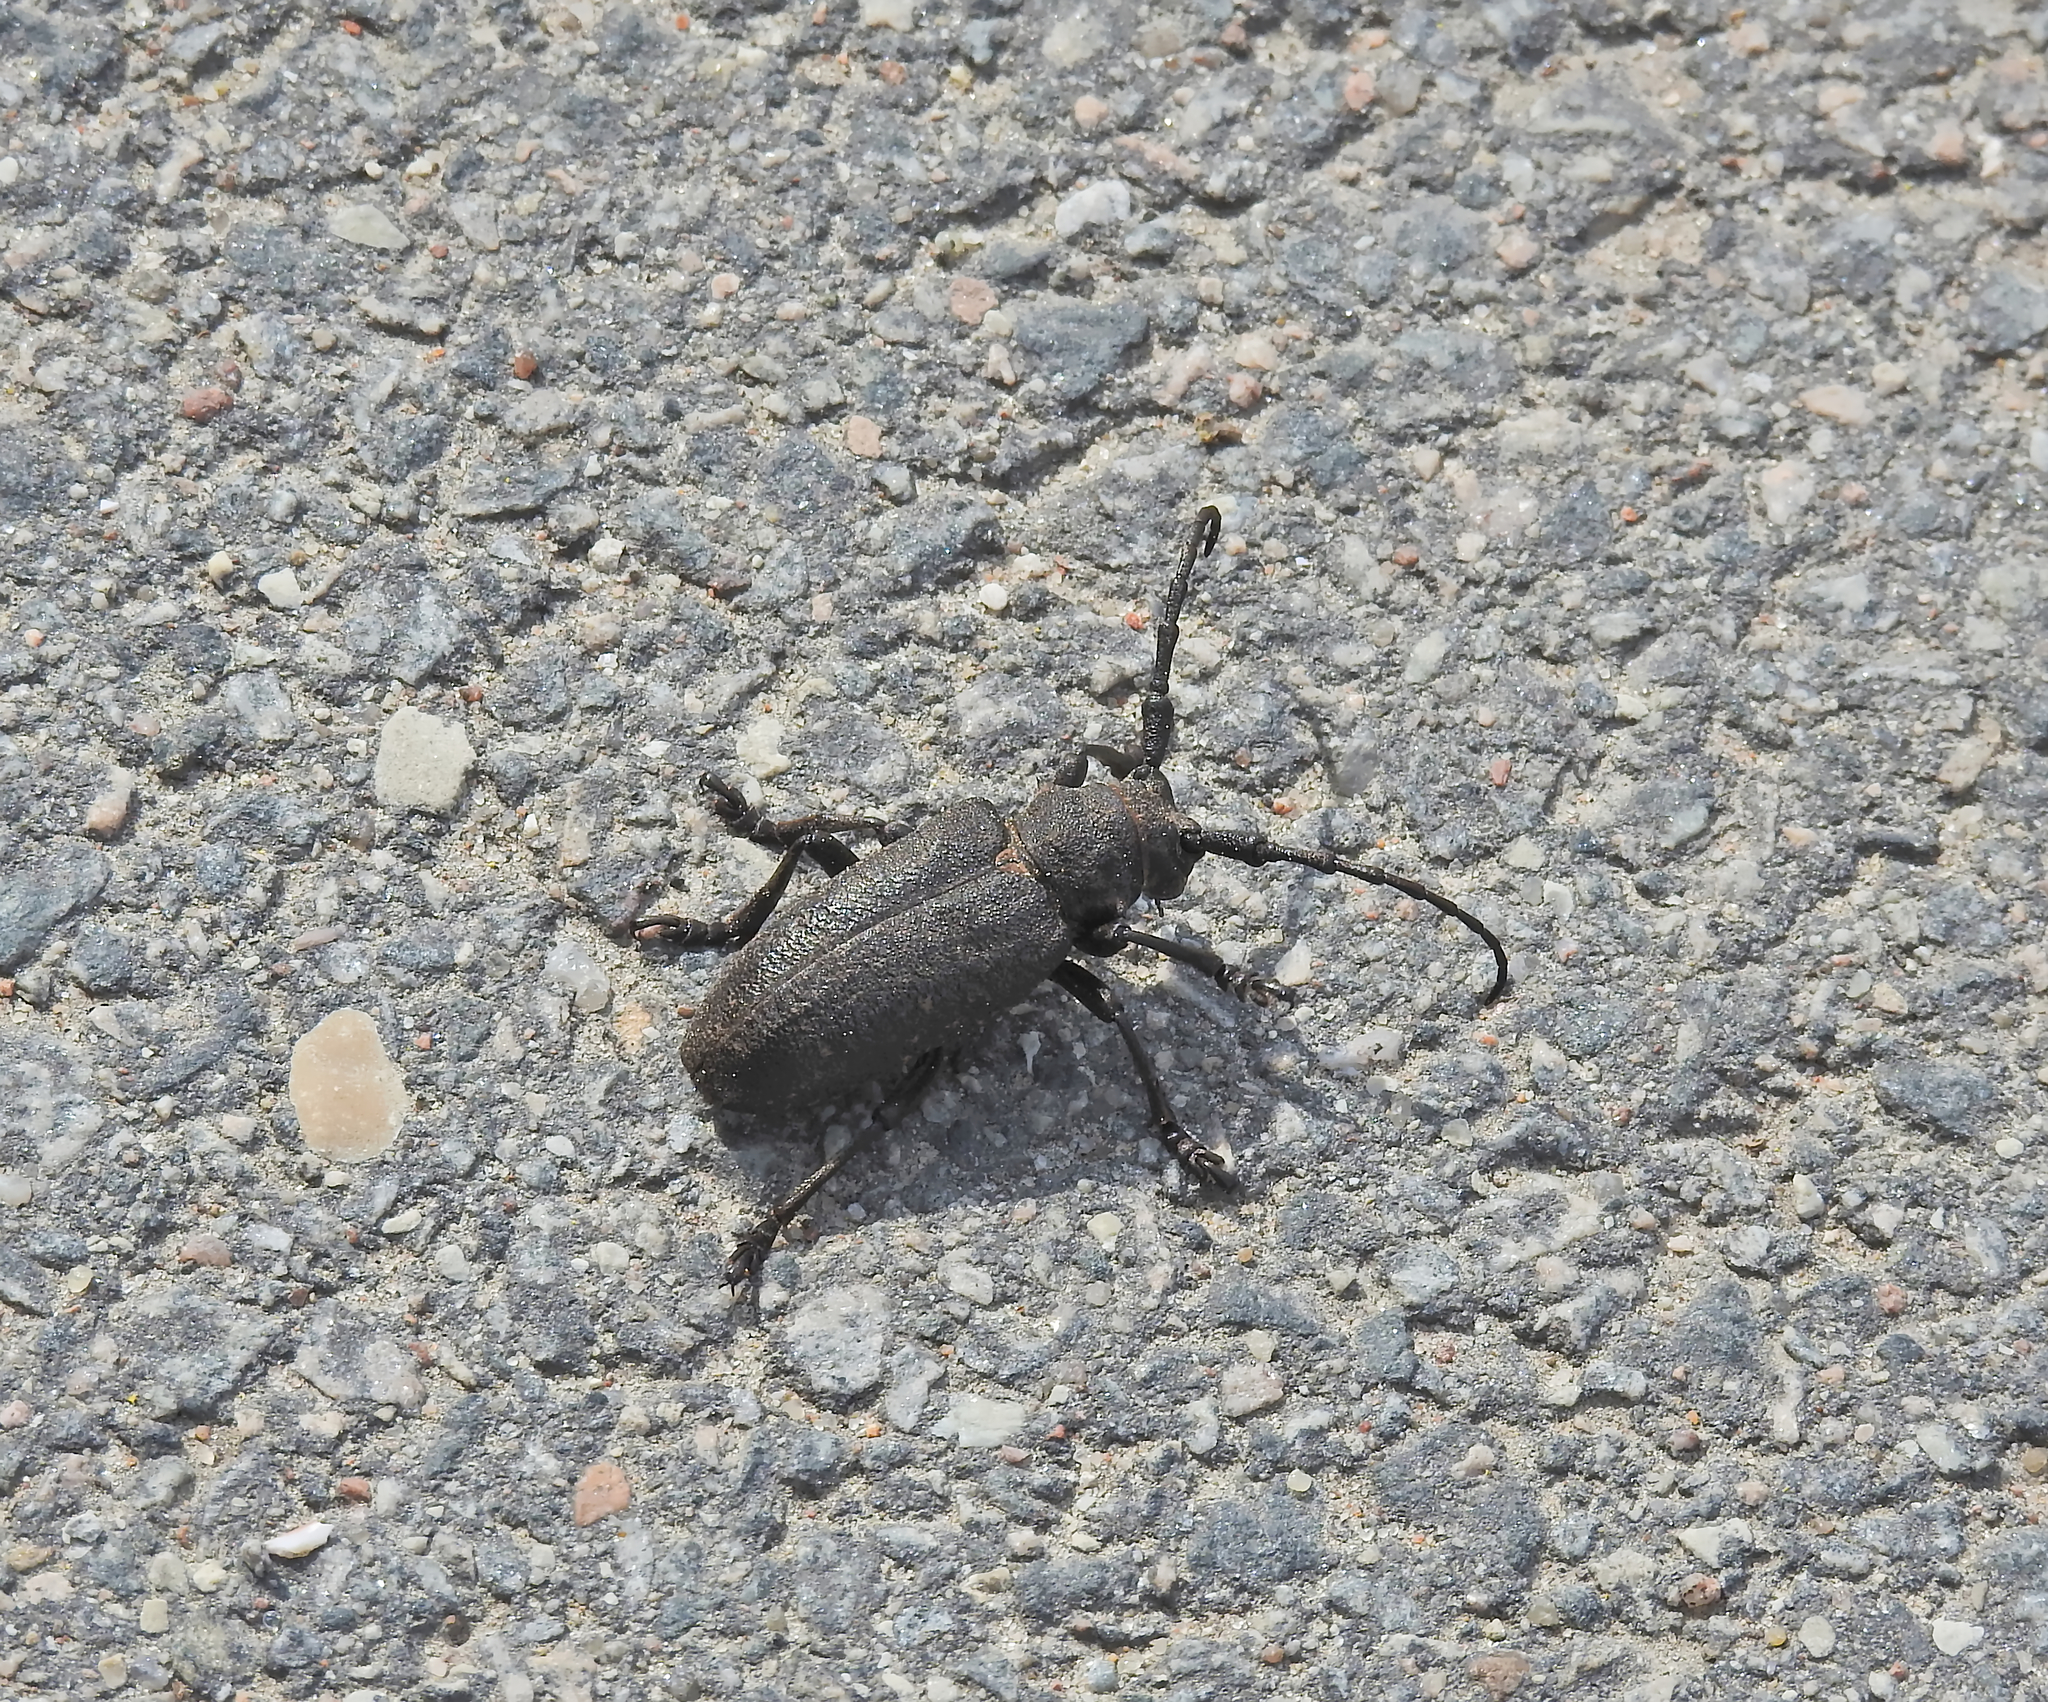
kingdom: Animalia
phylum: Arthropoda
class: Insecta
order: Coleoptera
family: Cerambycidae
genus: Lamia
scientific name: Lamia textor
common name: Weaver beetle
